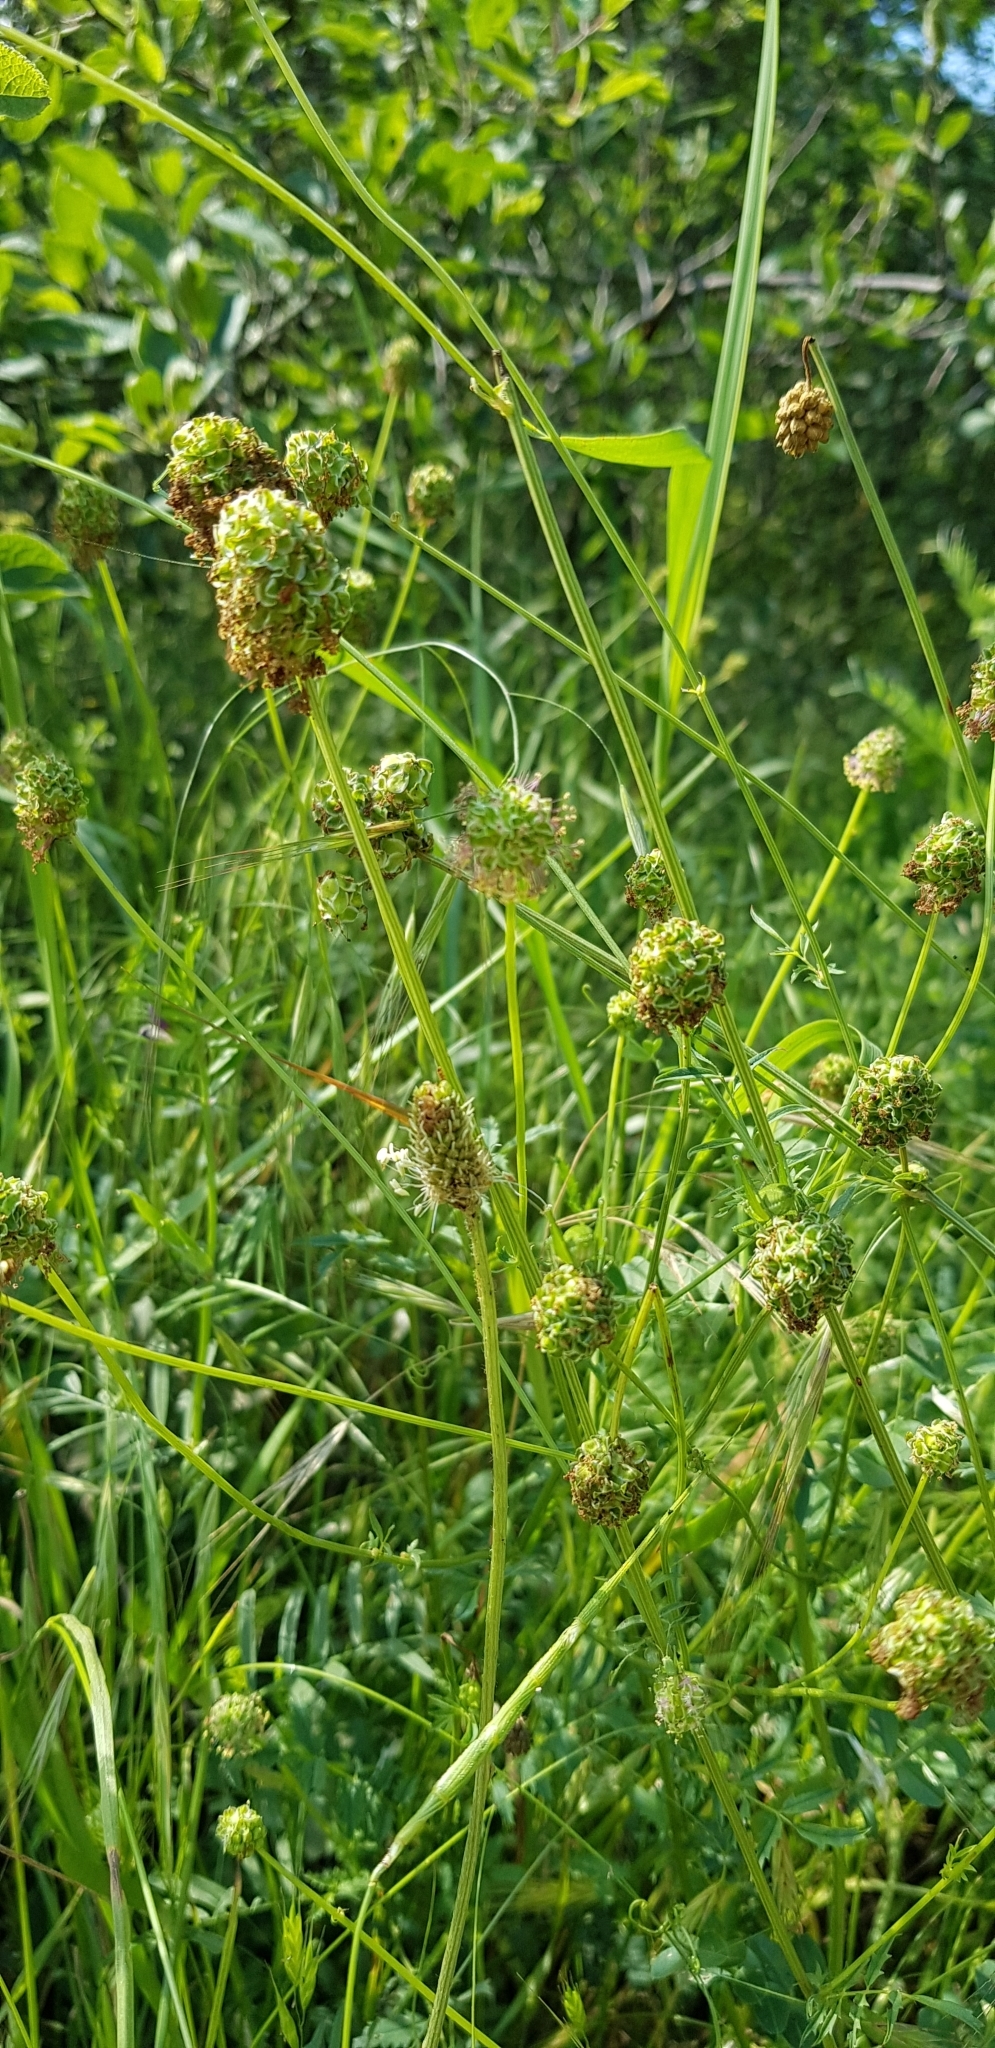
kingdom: Plantae
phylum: Tracheophyta
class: Magnoliopsida
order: Rosales
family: Rosaceae
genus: Poterium
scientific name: Poterium sanguisorba
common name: Salad burnet
